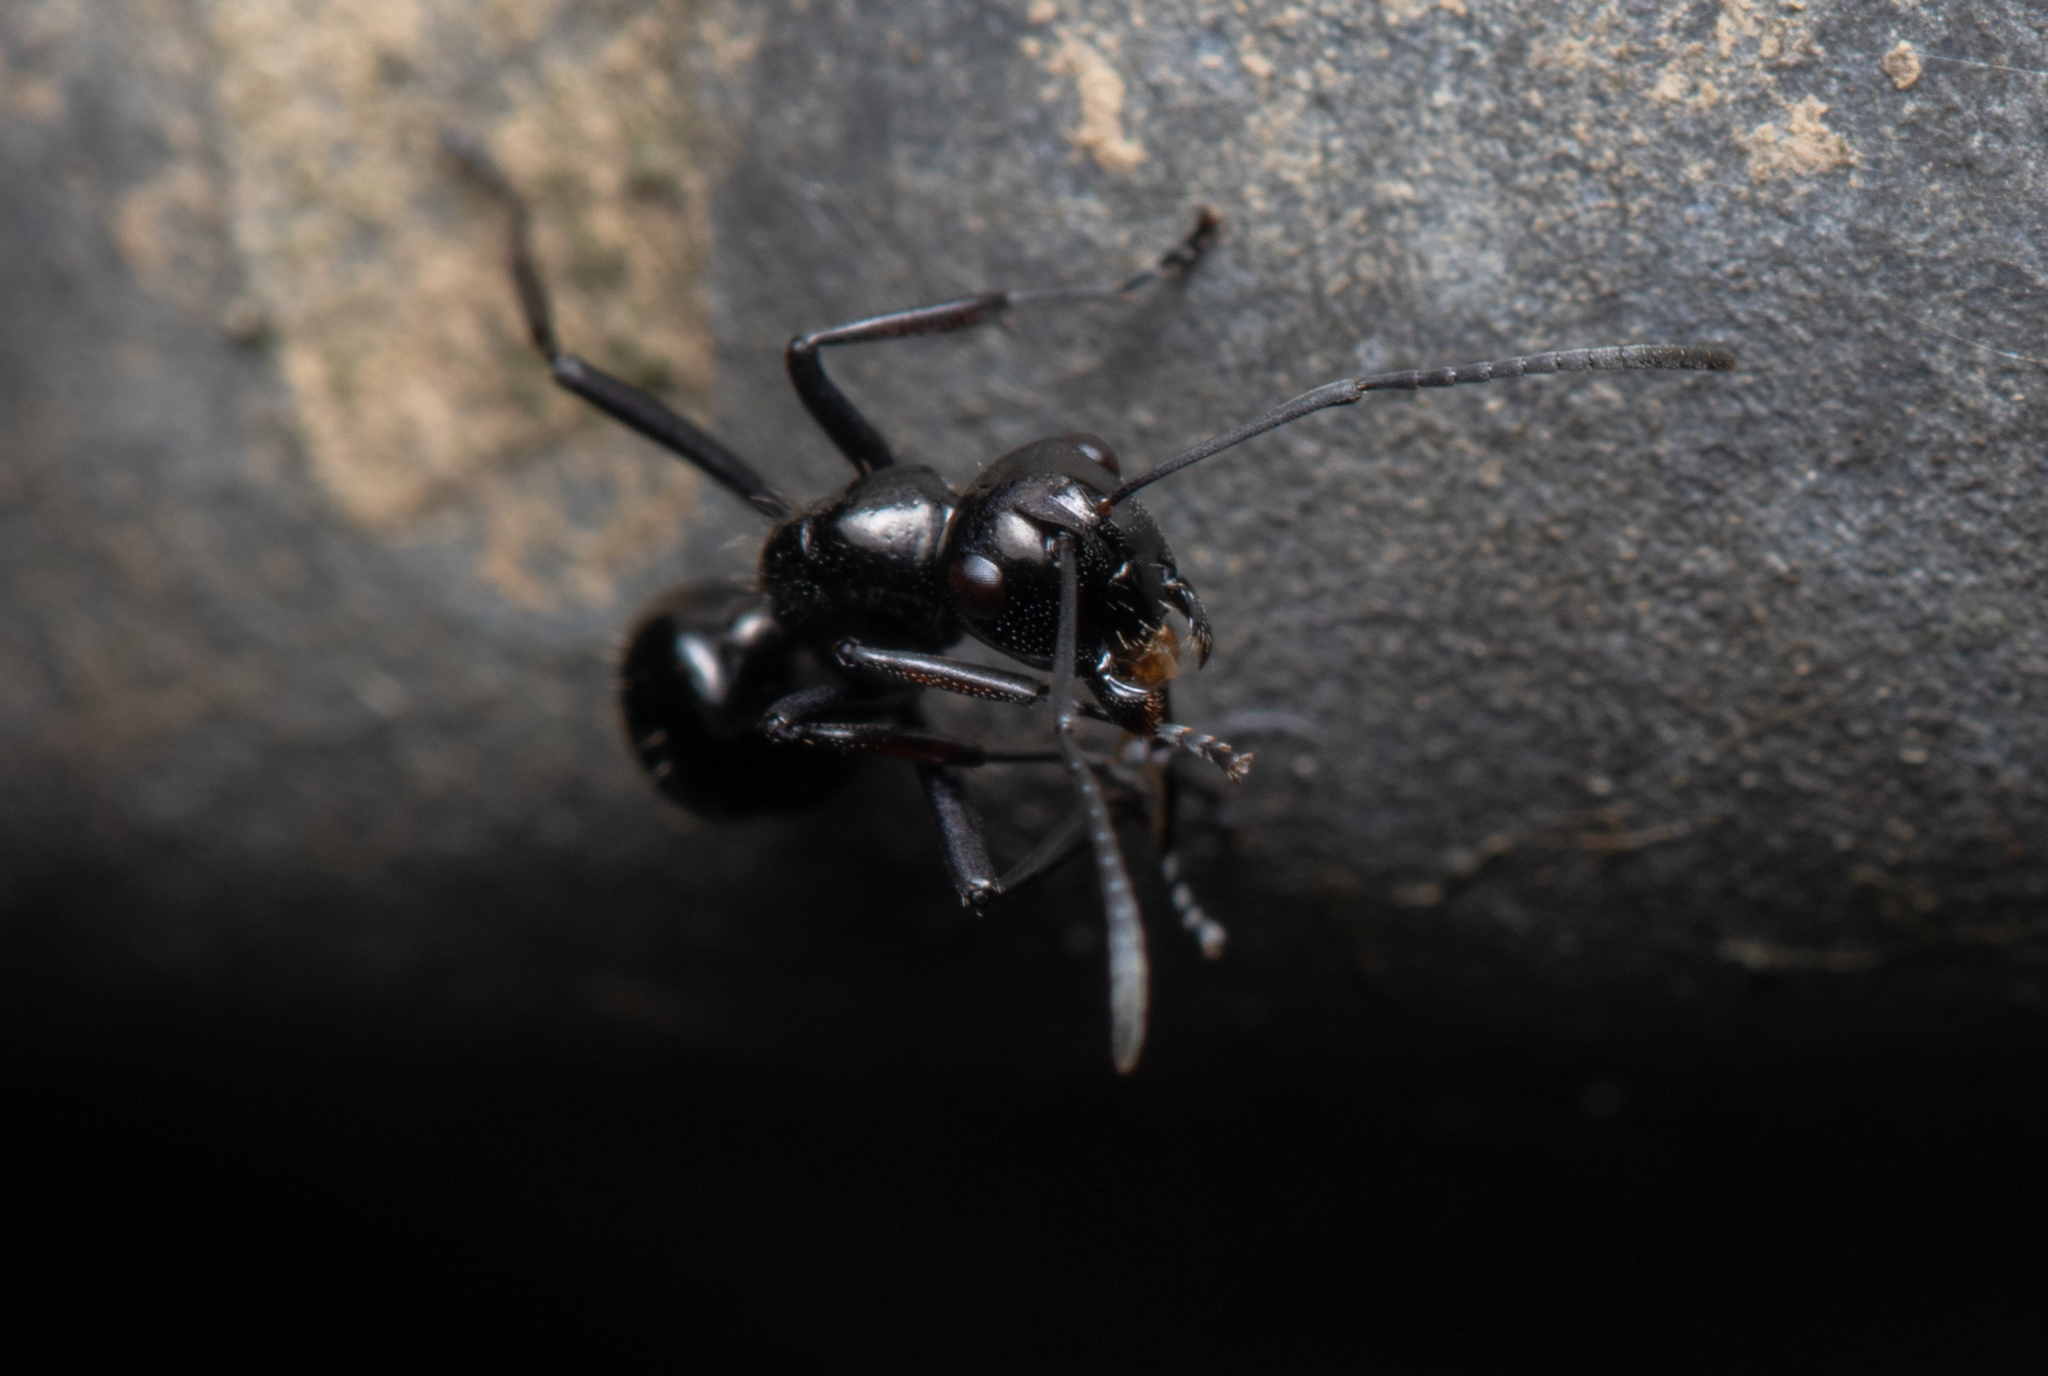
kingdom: Animalia
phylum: Arthropoda
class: Insecta
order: Hymenoptera
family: Formicidae
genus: Polyrhachis
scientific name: Polyrhachis pilosa
